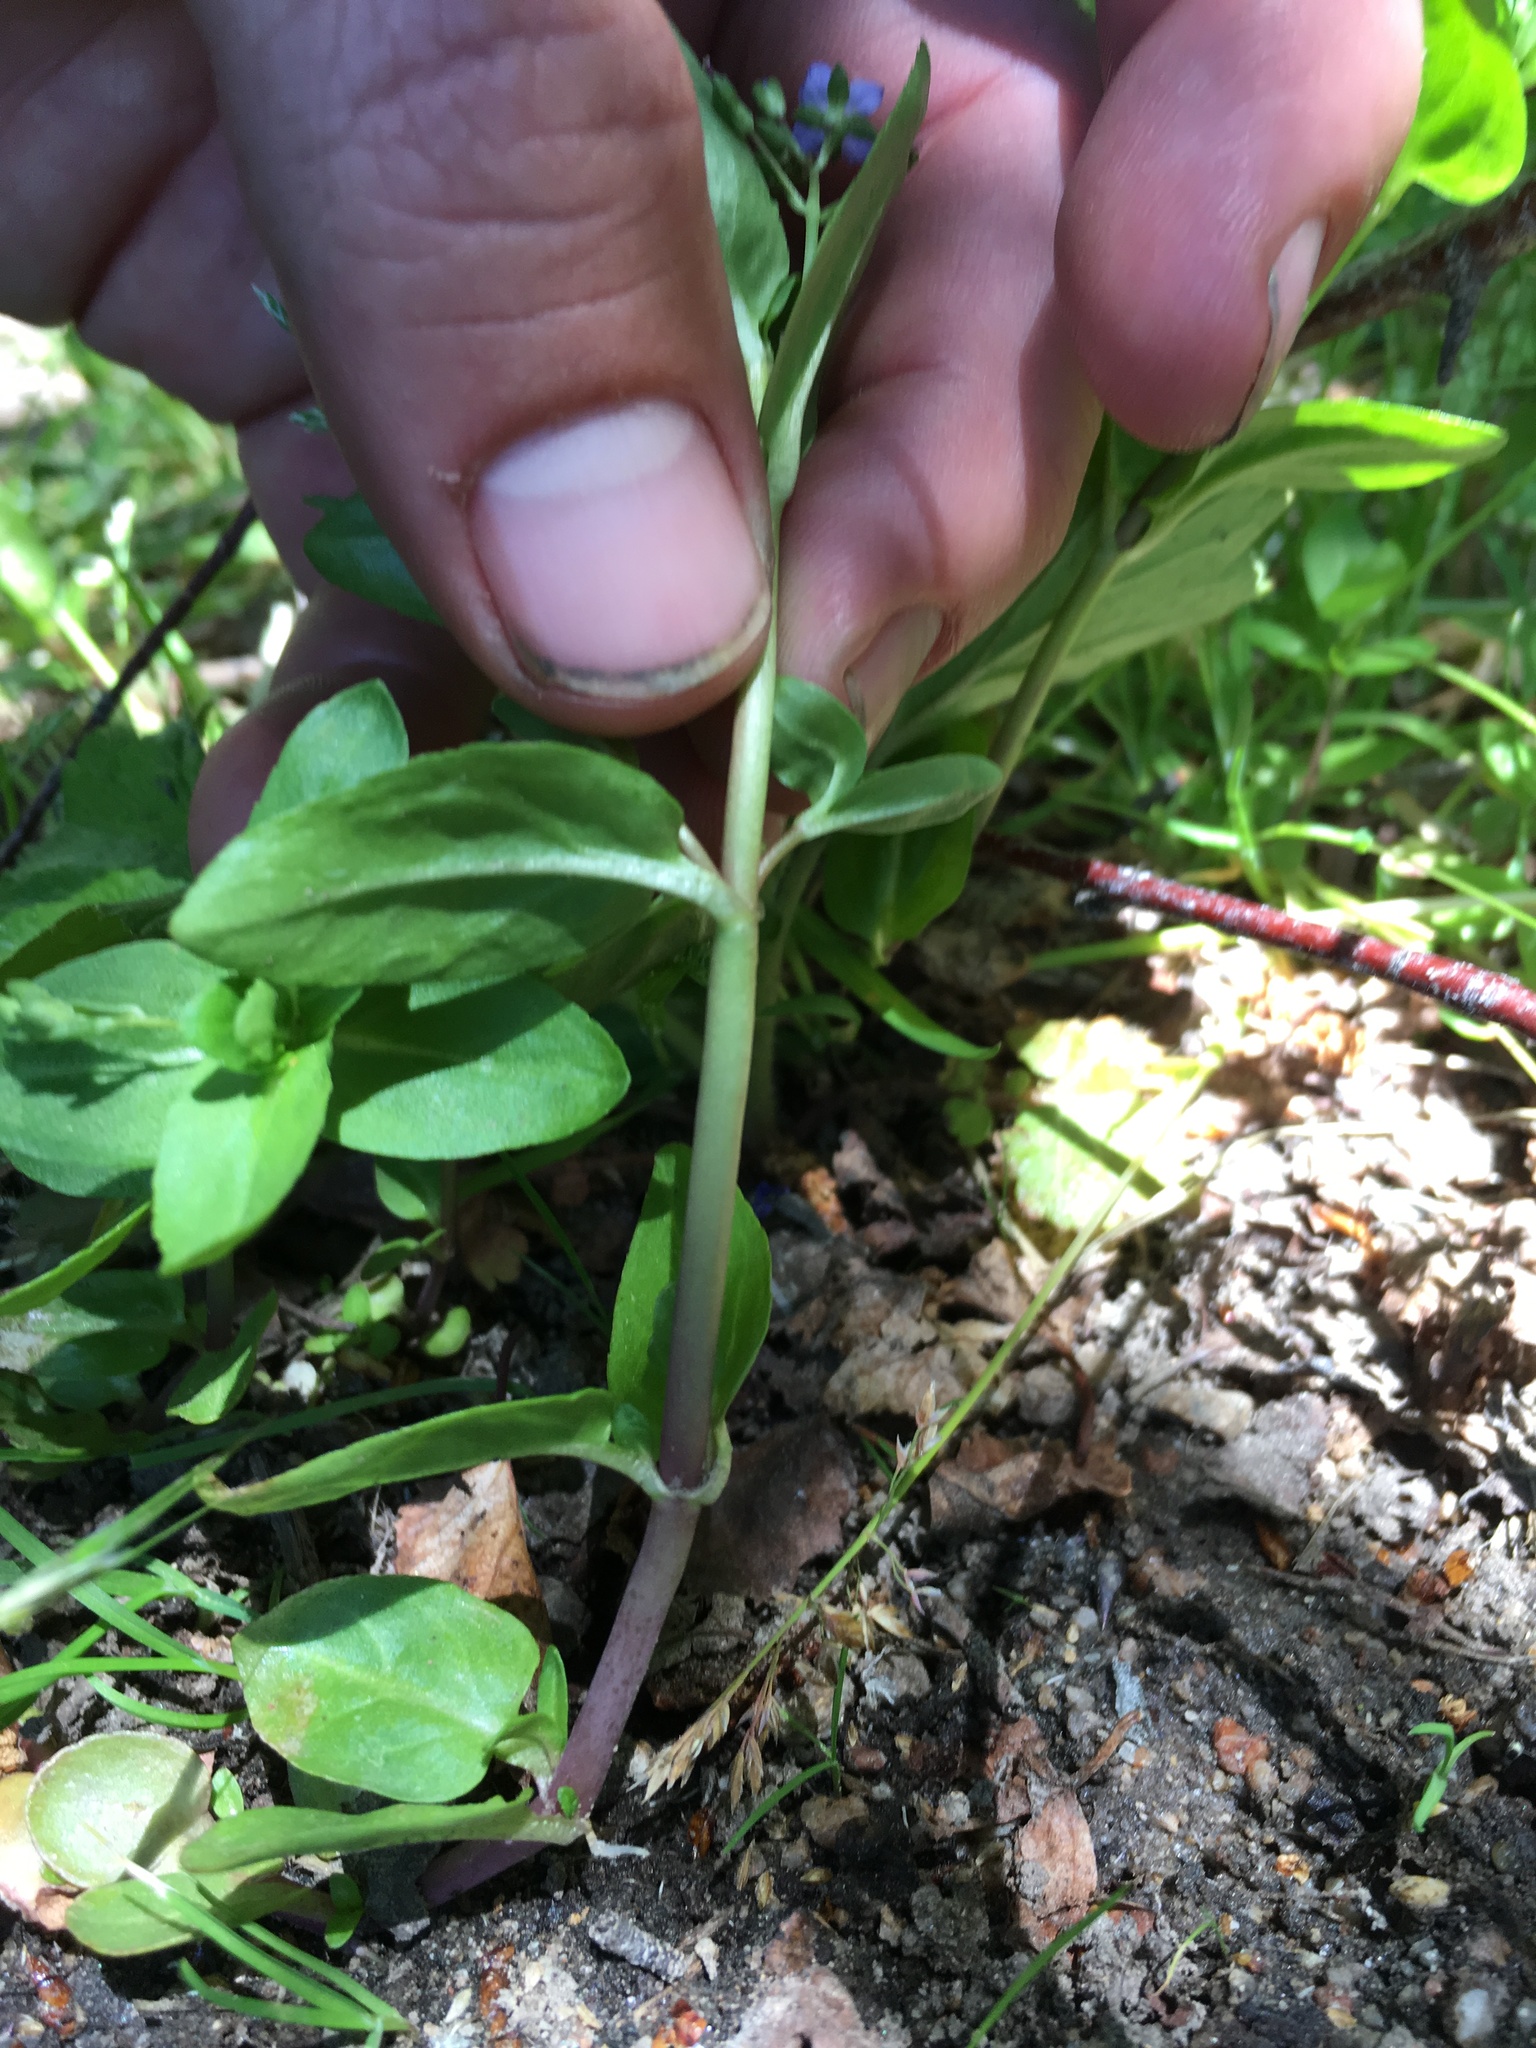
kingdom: Plantae
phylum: Tracheophyta
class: Magnoliopsida
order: Lamiales
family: Plantaginaceae
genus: Veronica
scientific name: Veronica americana
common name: American brooklime
